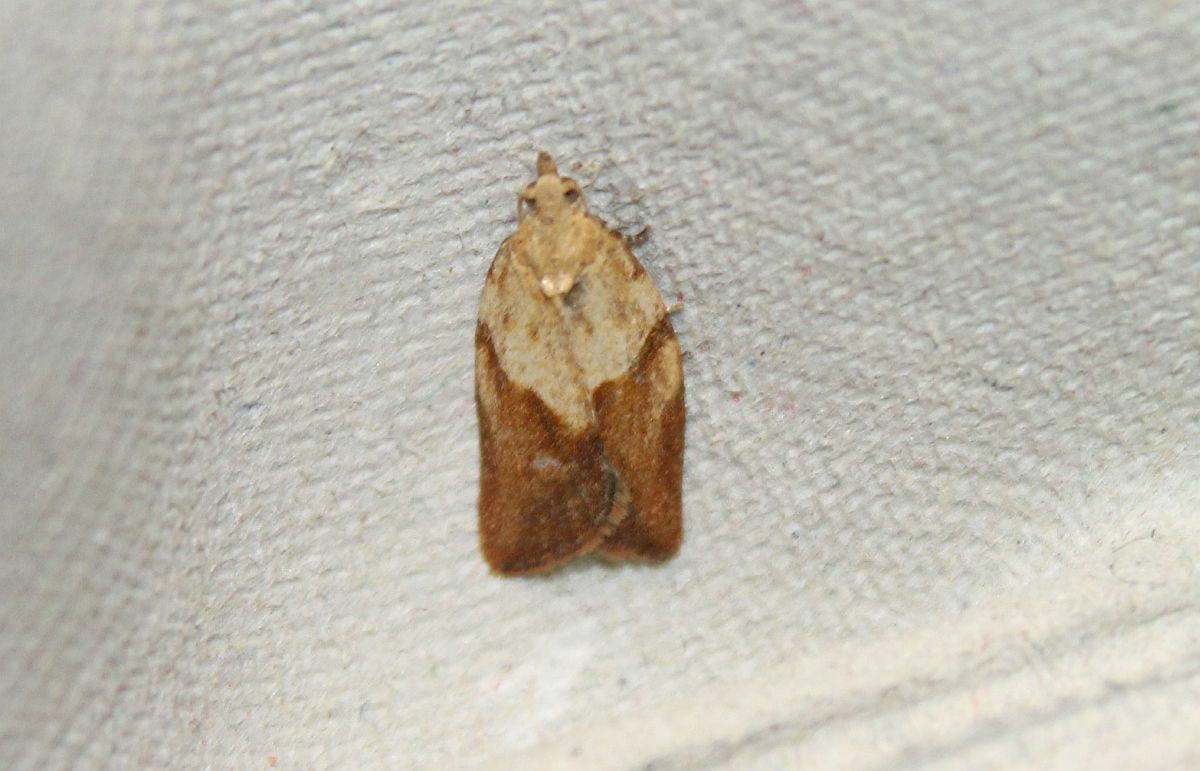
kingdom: Animalia
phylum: Arthropoda
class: Insecta
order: Lepidoptera
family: Tortricidae
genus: Epiphyas
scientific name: Epiphyas postvittana
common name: Light brown apple moth
